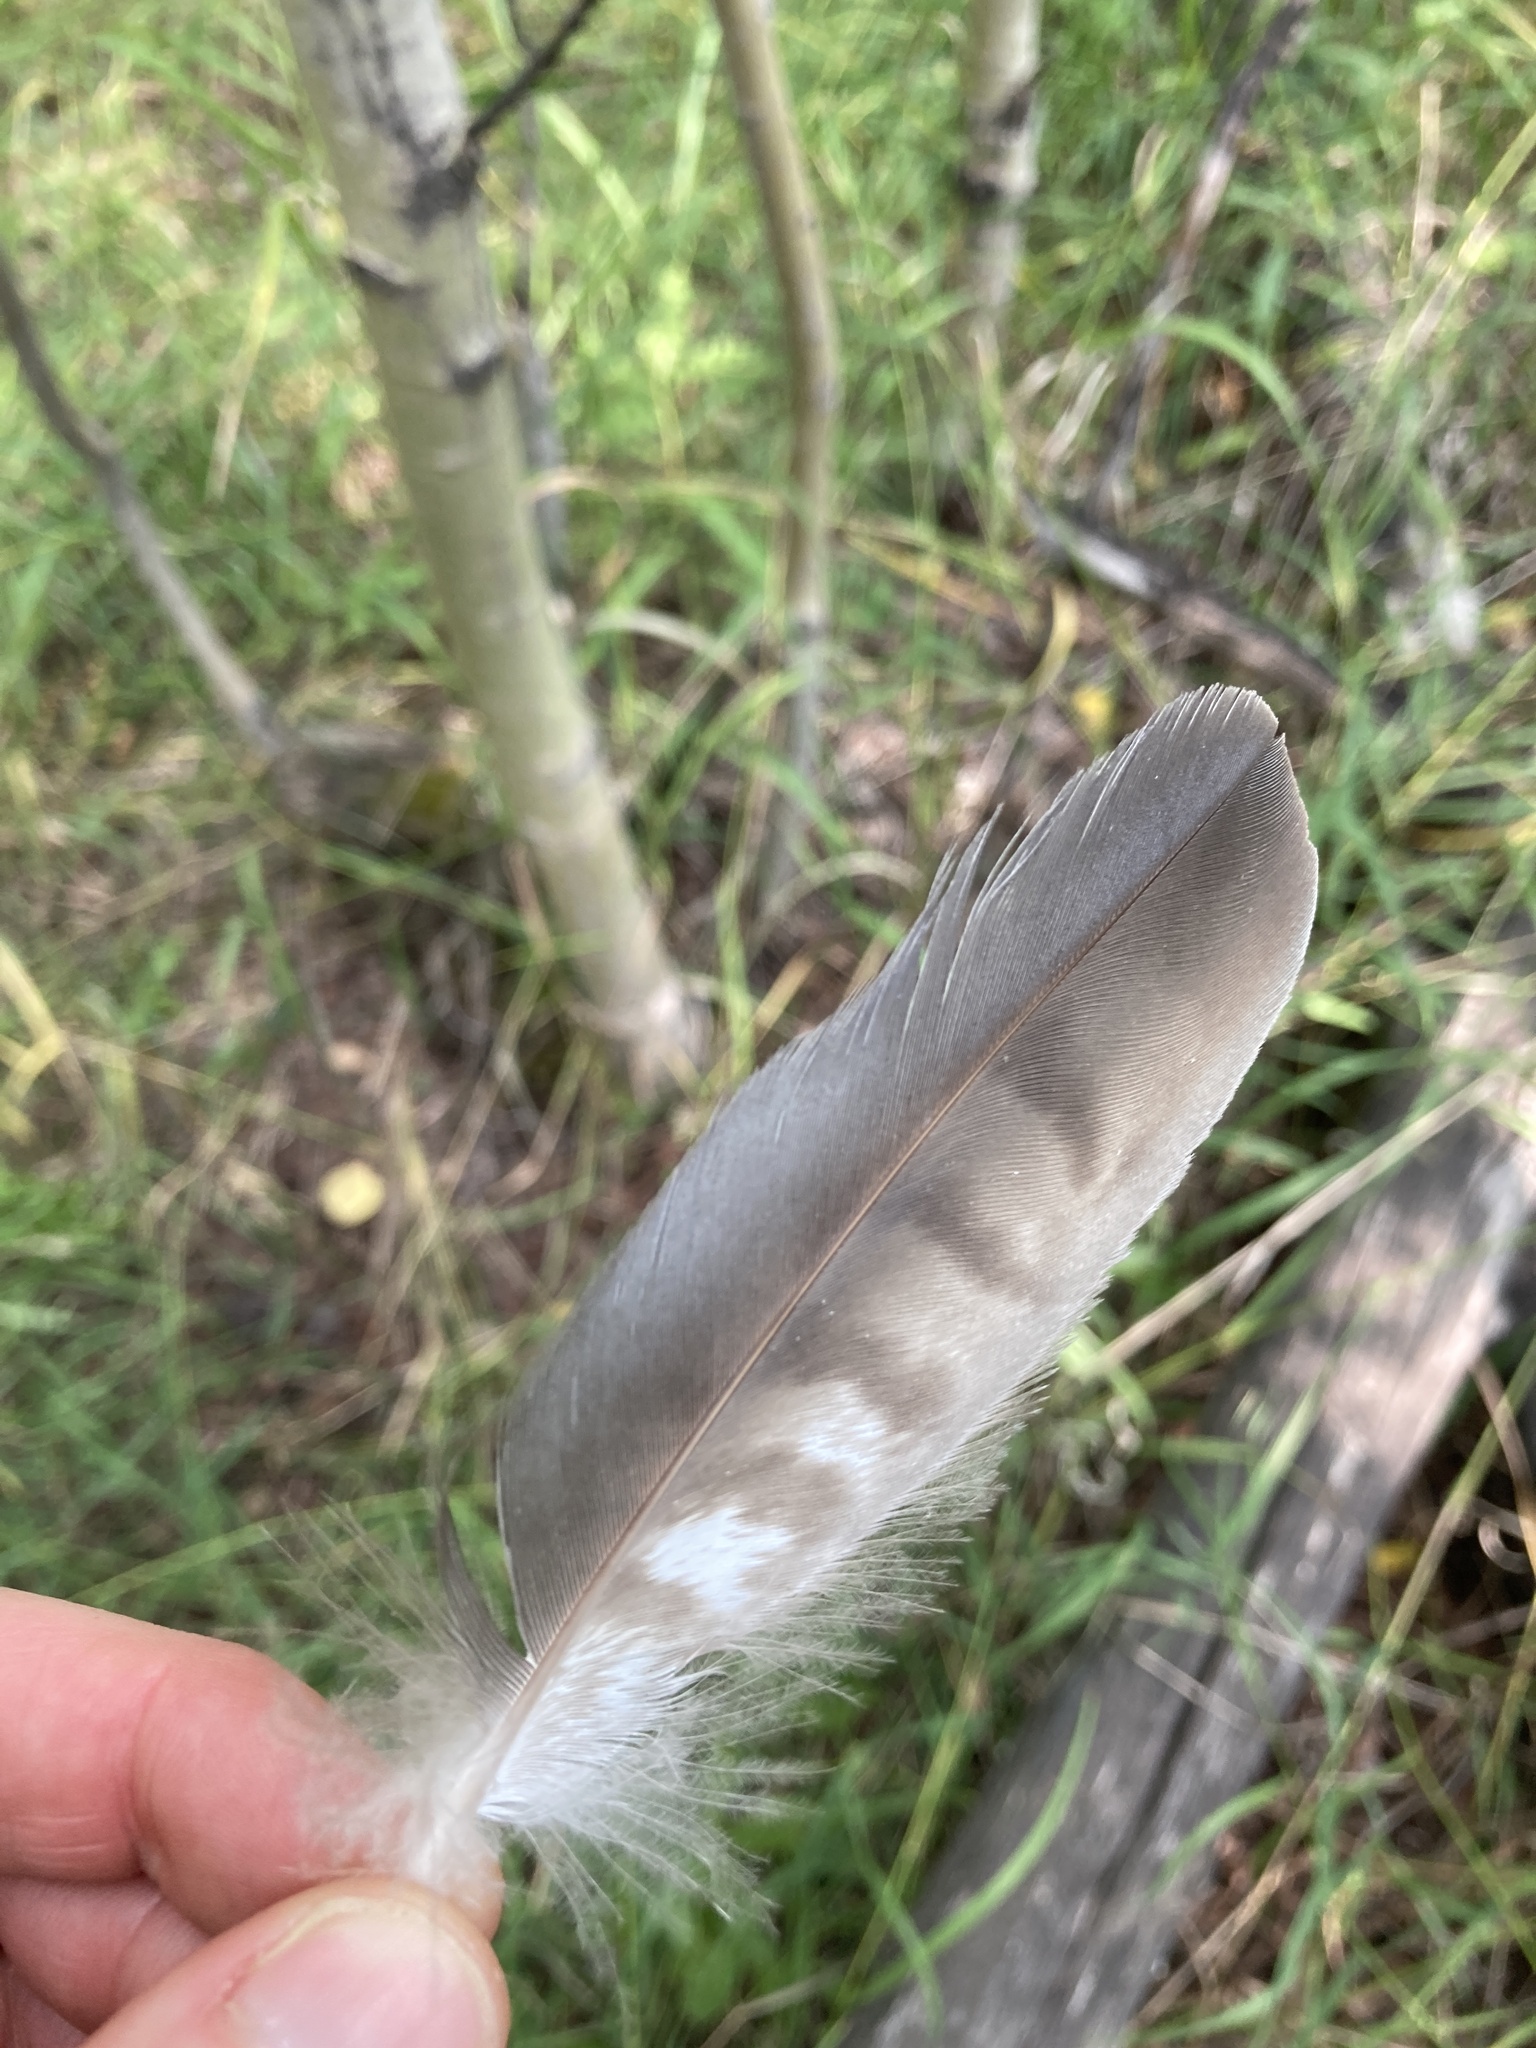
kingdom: Animalia
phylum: Chordata
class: Aves
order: Accipitriformes
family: Accipitridae
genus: Accipiter
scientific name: Accipiter cooperii
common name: Cooper's hawk
